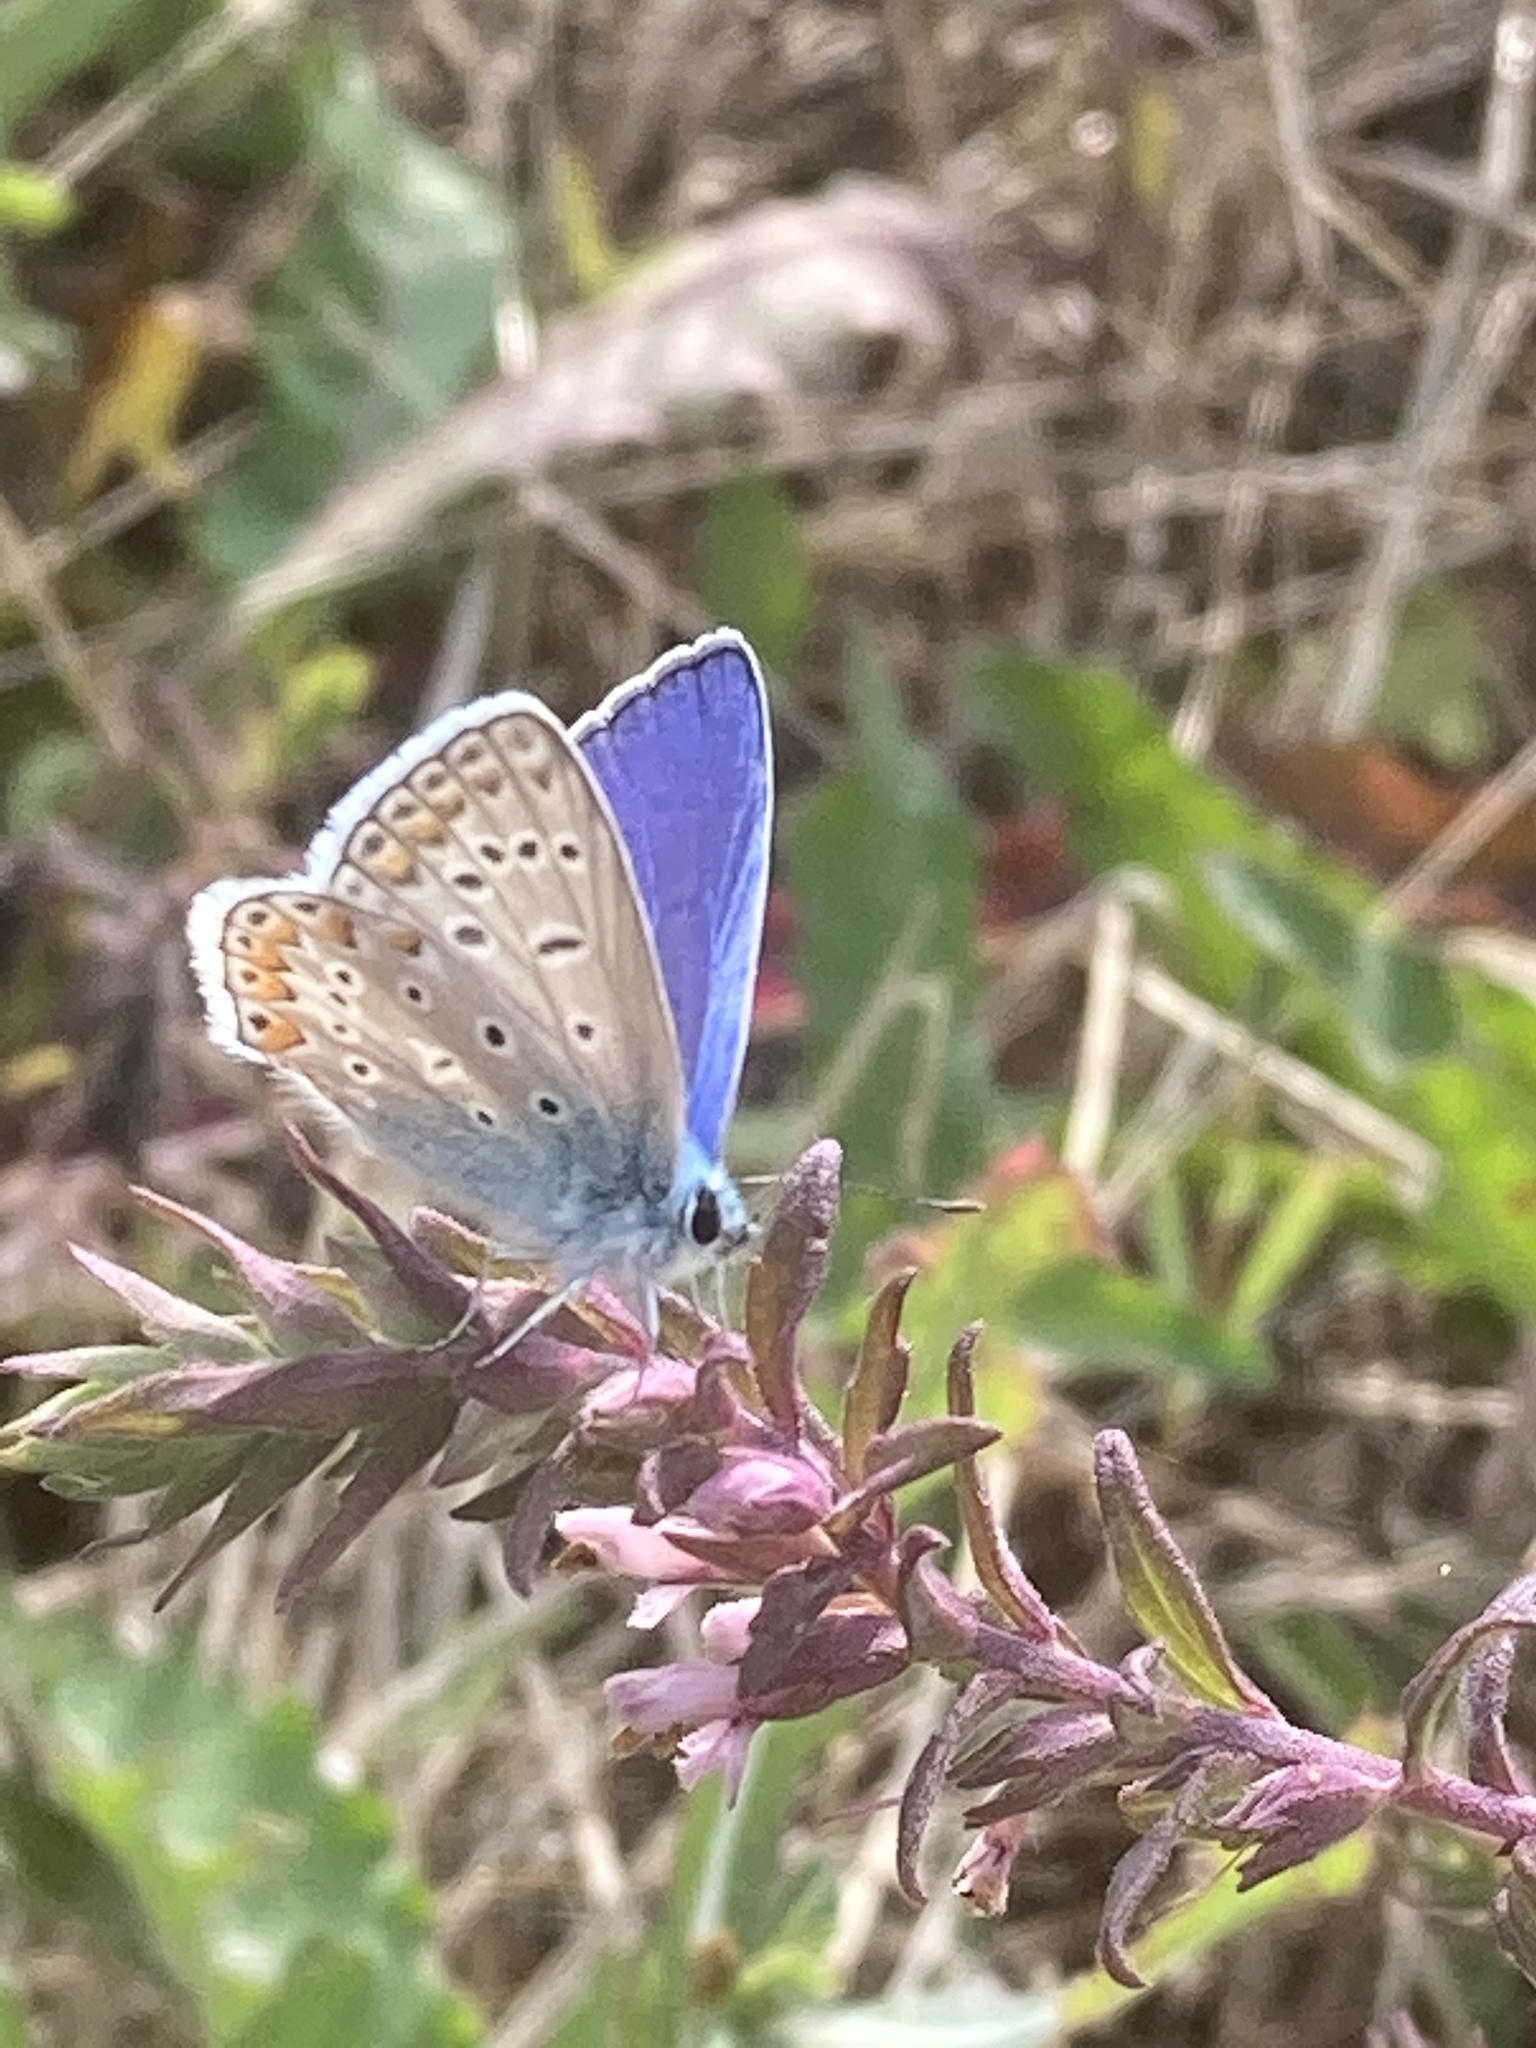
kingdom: Animalia
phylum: Arthropoda
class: Insecta
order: Lepidoptera
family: Lycaenidae
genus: Polyommatus
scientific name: Polyommatus icarus
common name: Common blue
